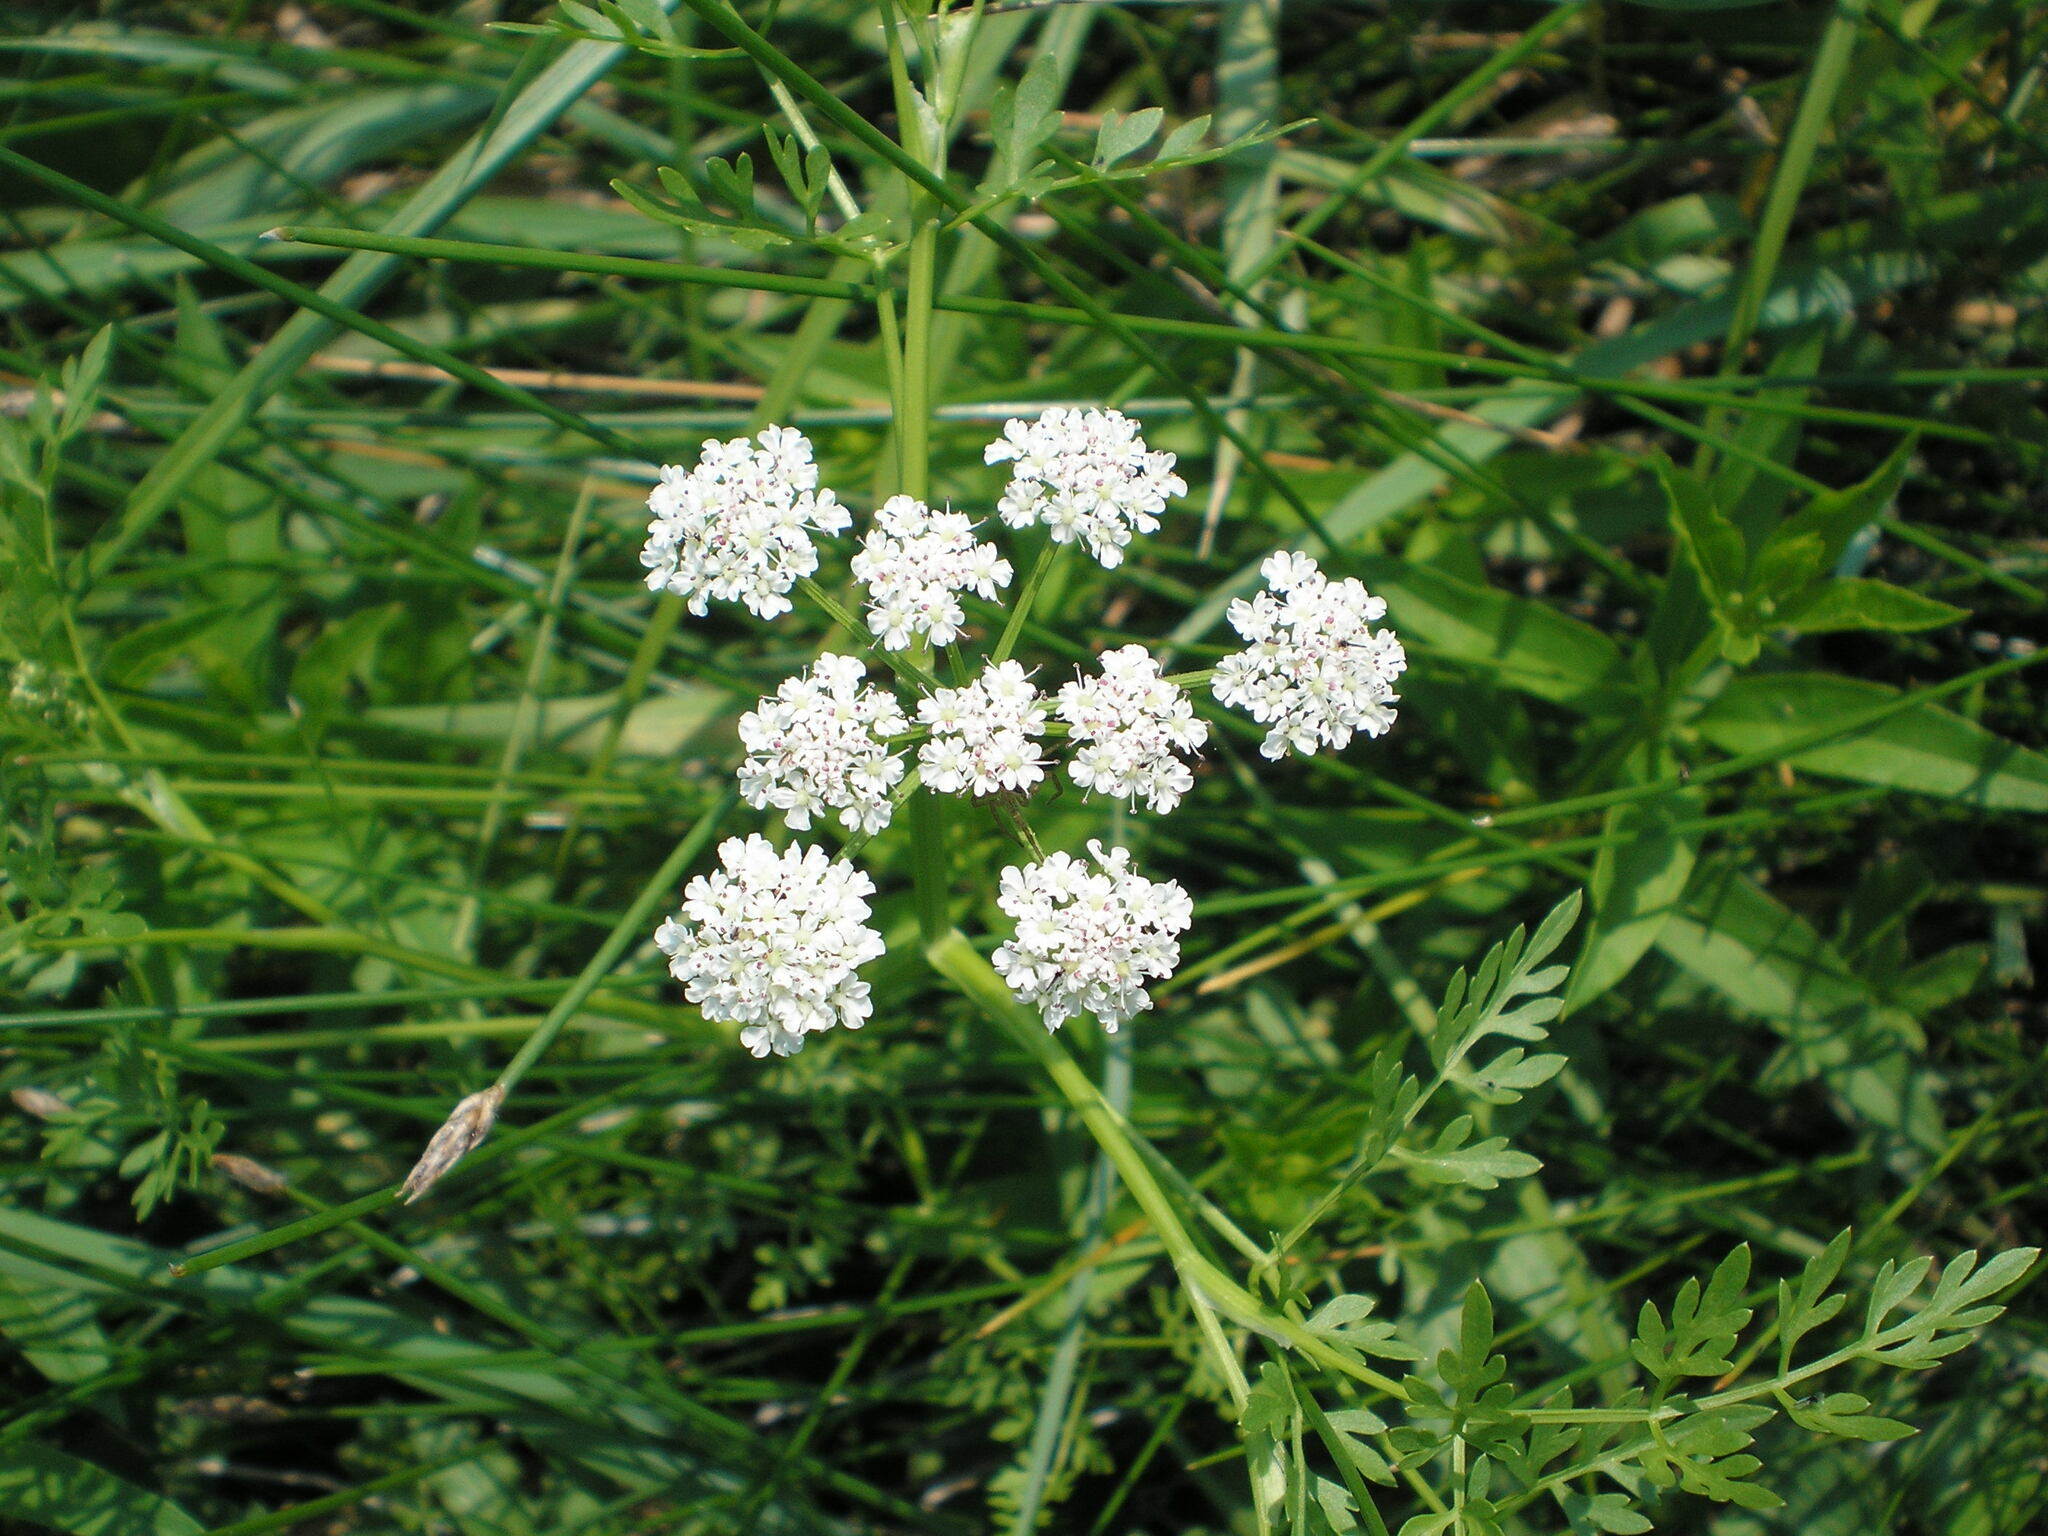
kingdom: Plantae
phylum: Tracheophyta
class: Magnoliopsida
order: Apiales
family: Apiaceae
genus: Oenanthe
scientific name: Oenanthe aquatica
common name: Fine-leaved water-dropwort
